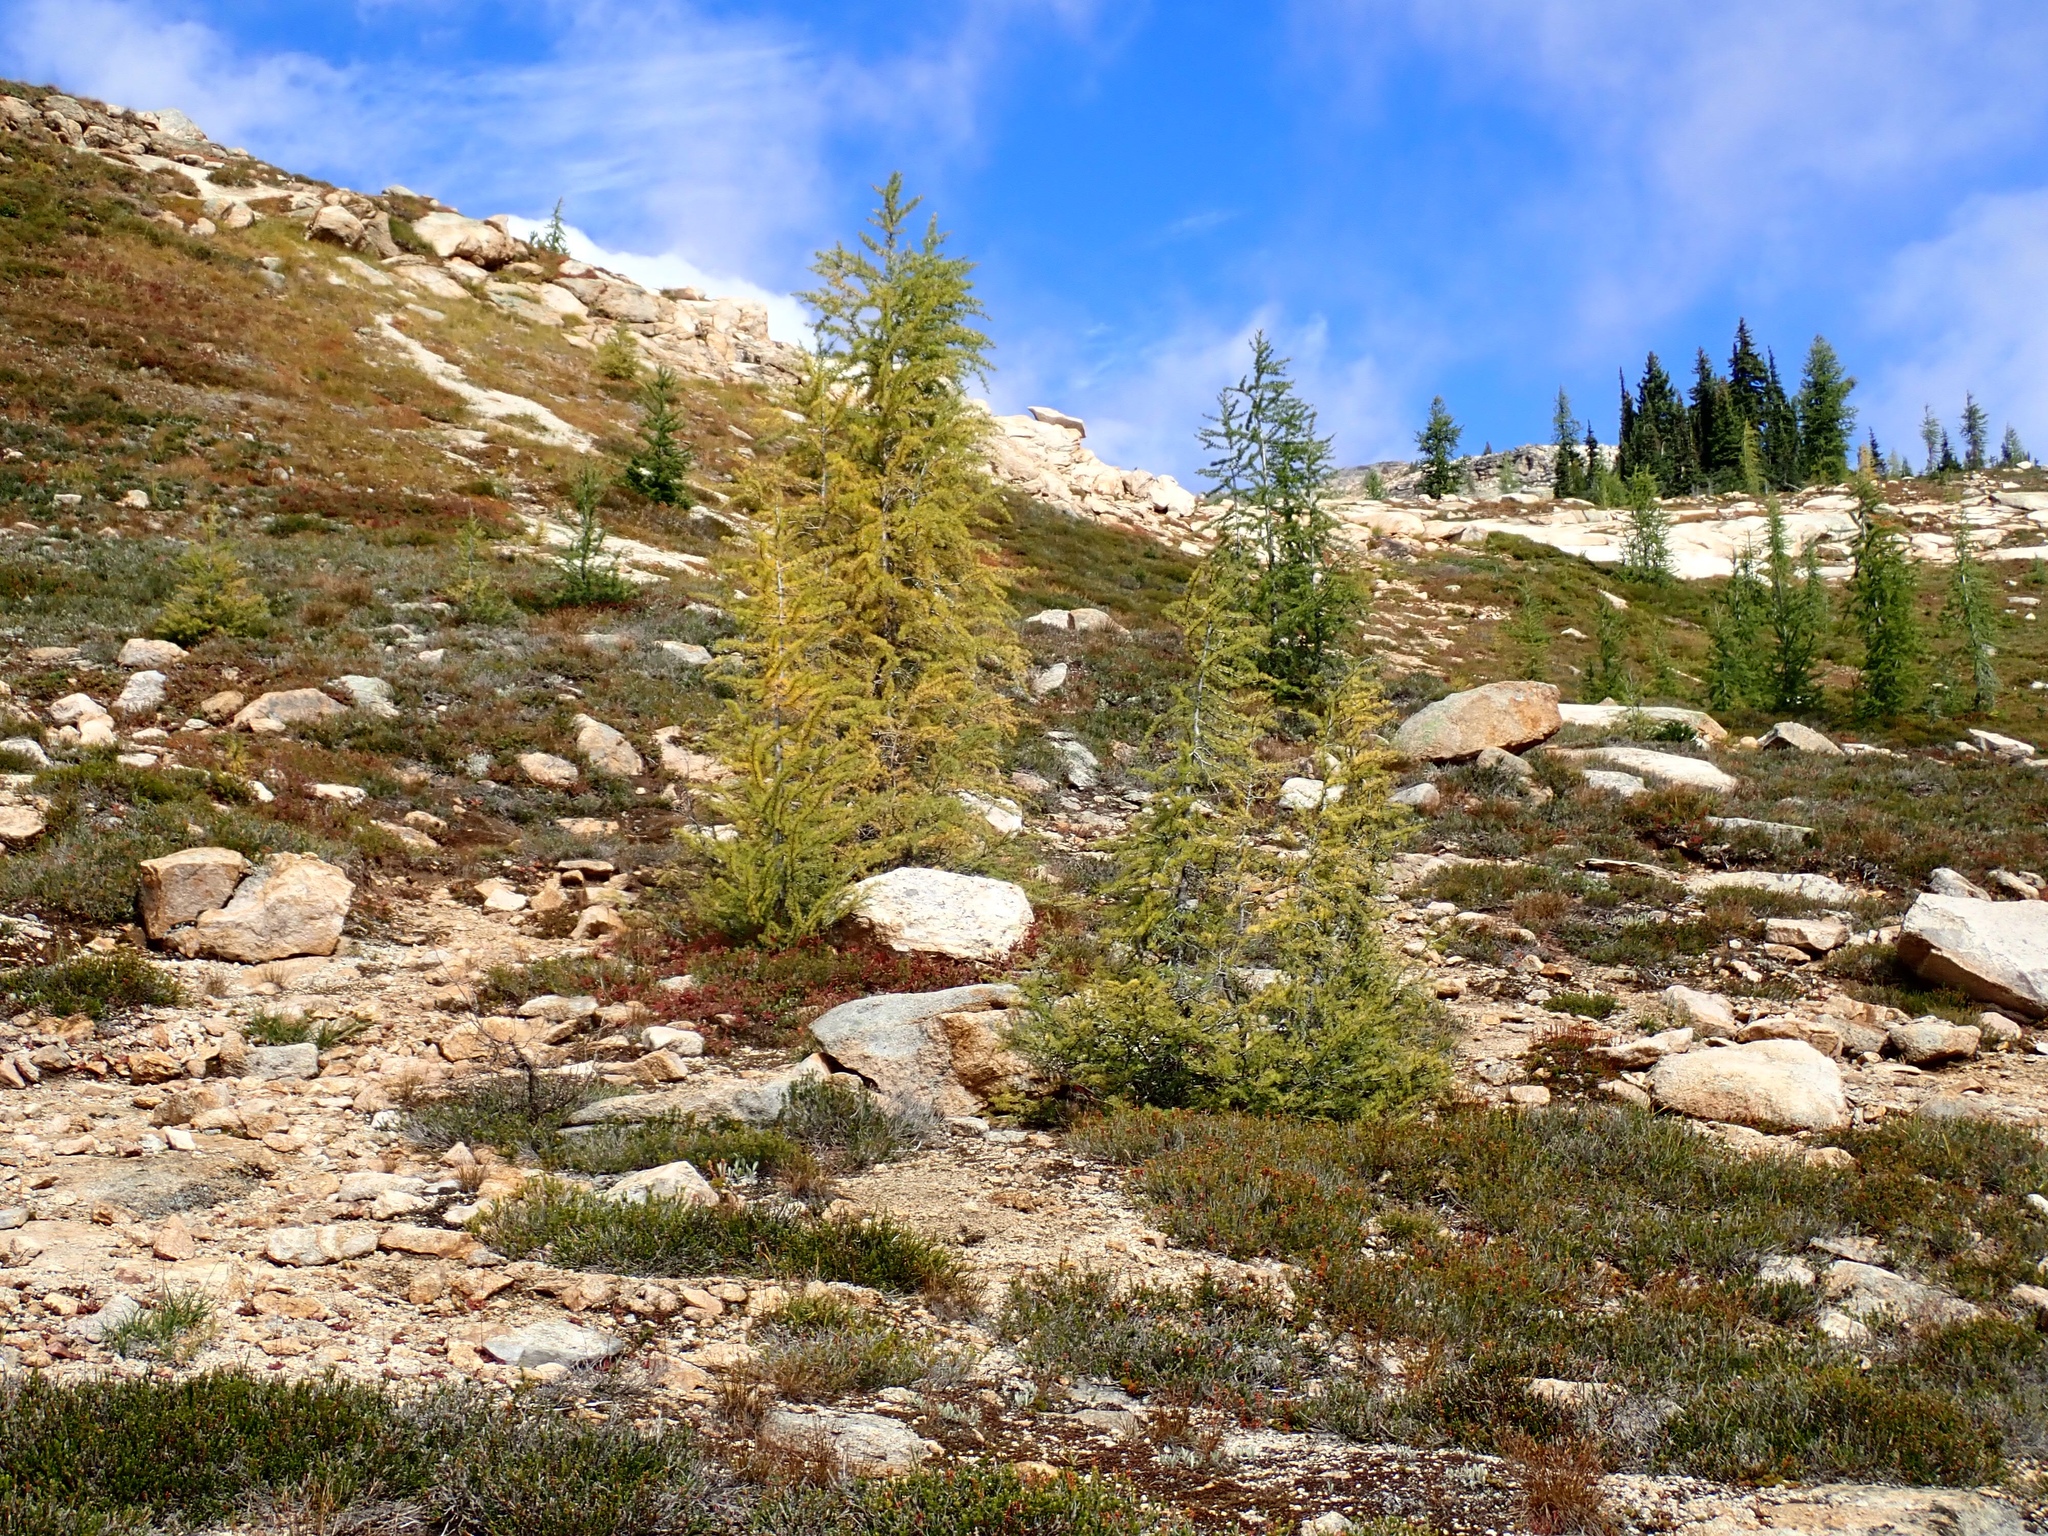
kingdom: Plantae
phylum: Tracheophyta
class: Pinopsida
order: Pinales
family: Pinaceae
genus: Larix
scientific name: Larix lyallii
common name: Alpine larch
